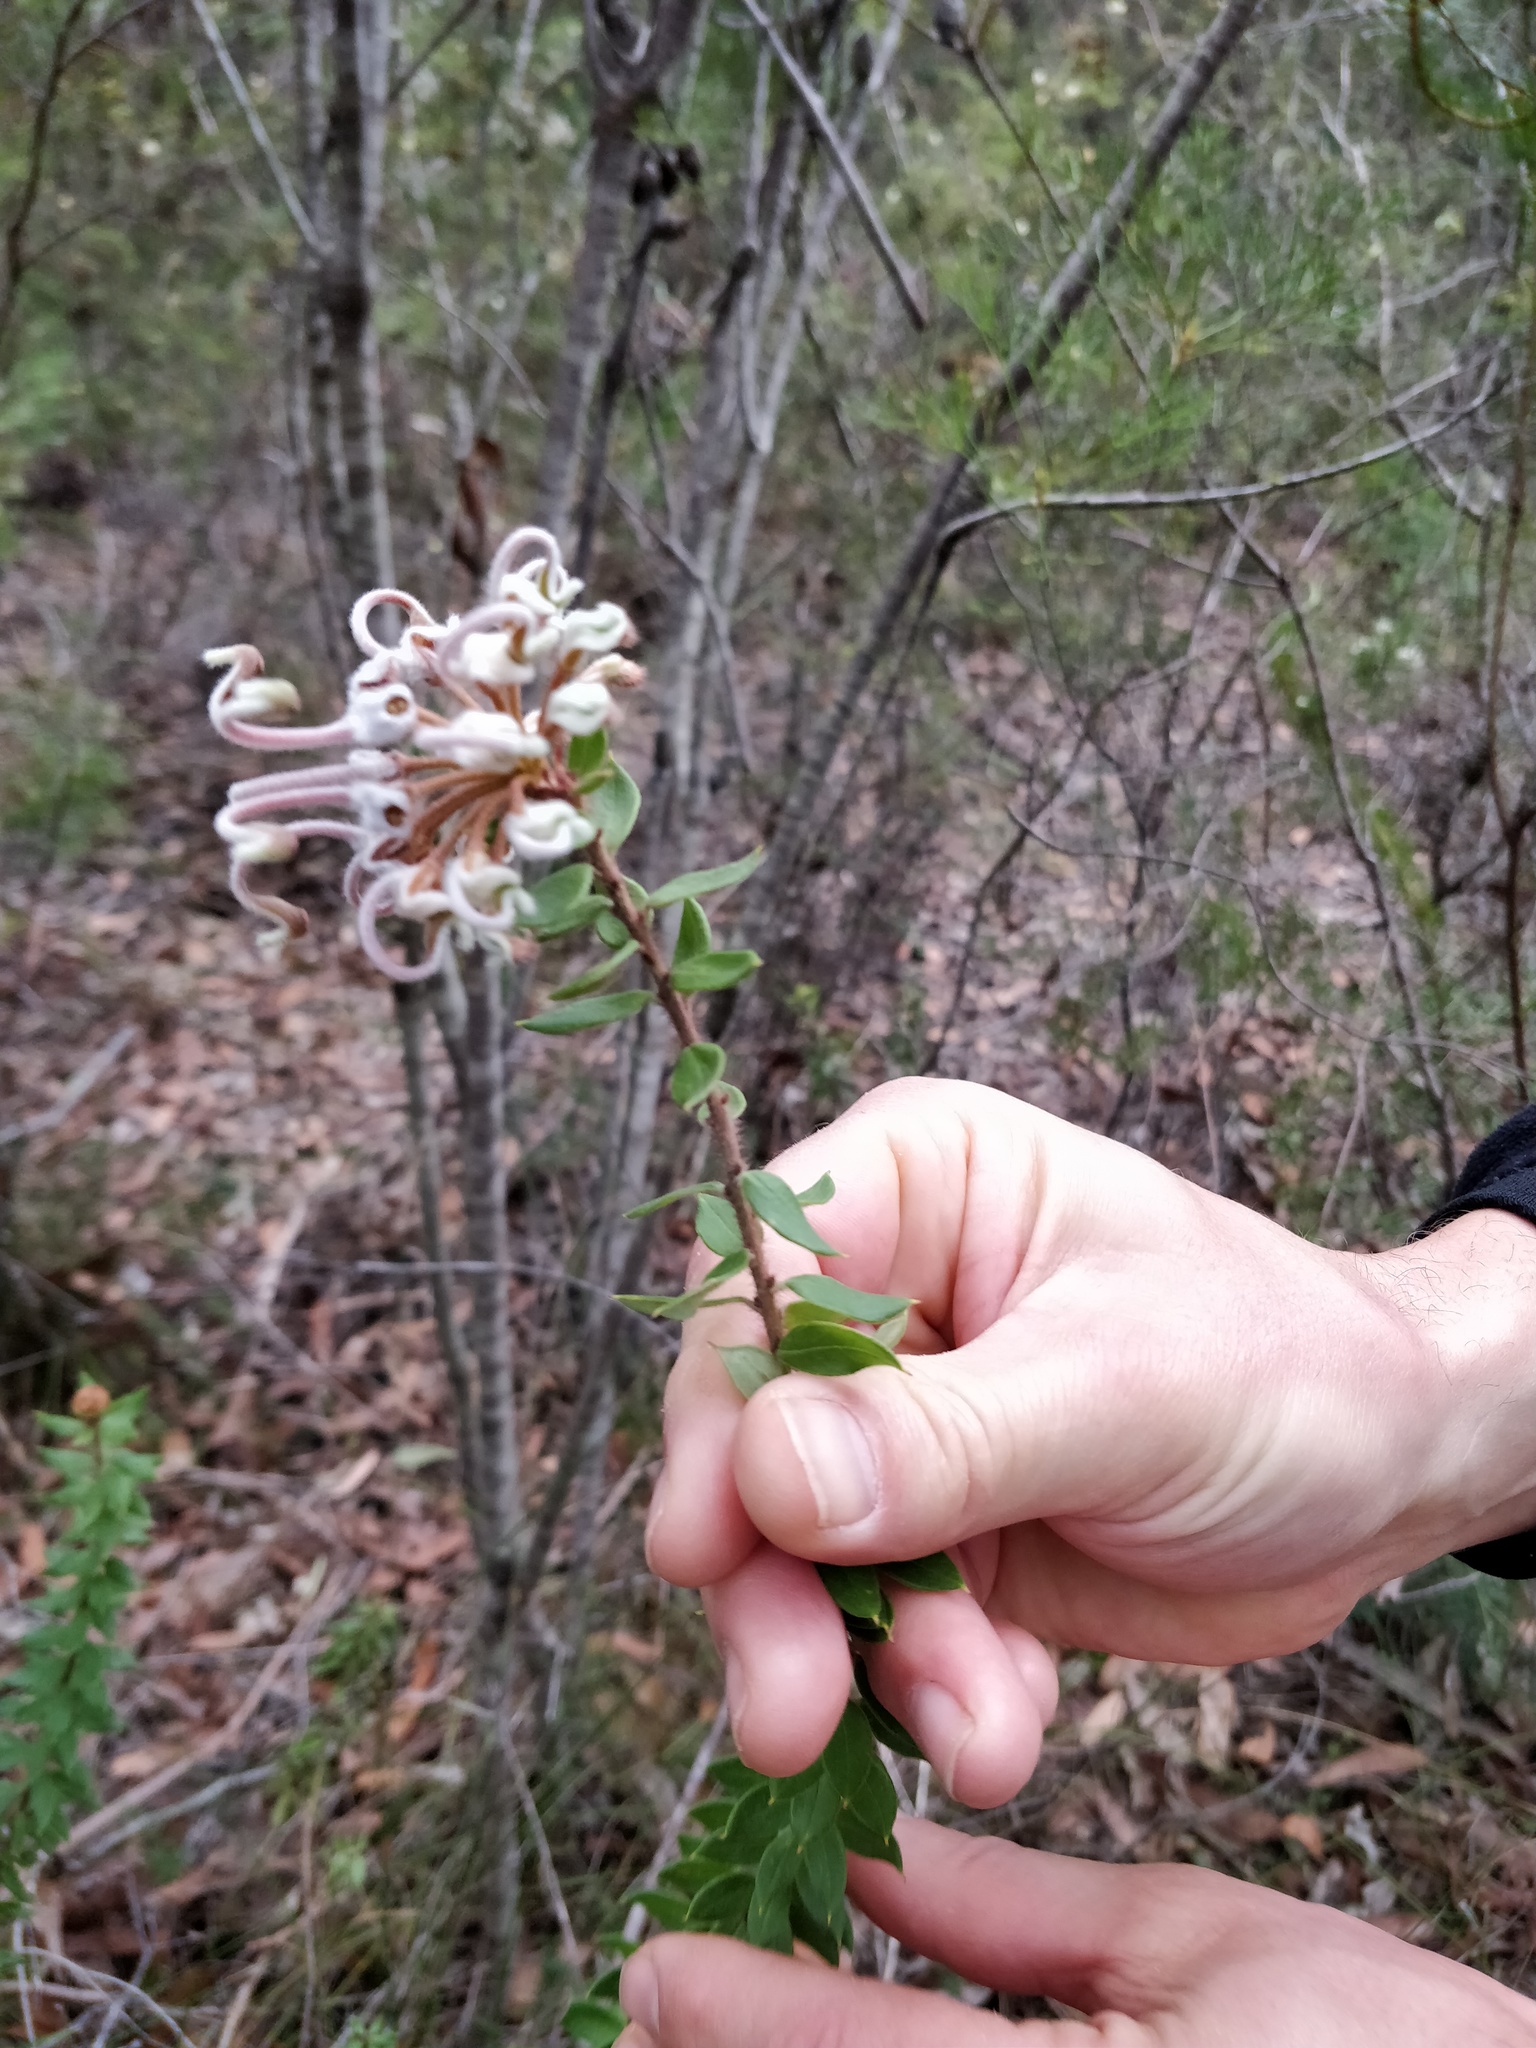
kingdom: Plantae
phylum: Tracheophyta
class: Magnoliopsida
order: Proteales
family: Proteaceae
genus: Grevillea
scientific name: Grevillea buxifolia
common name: Grey spiderflower
